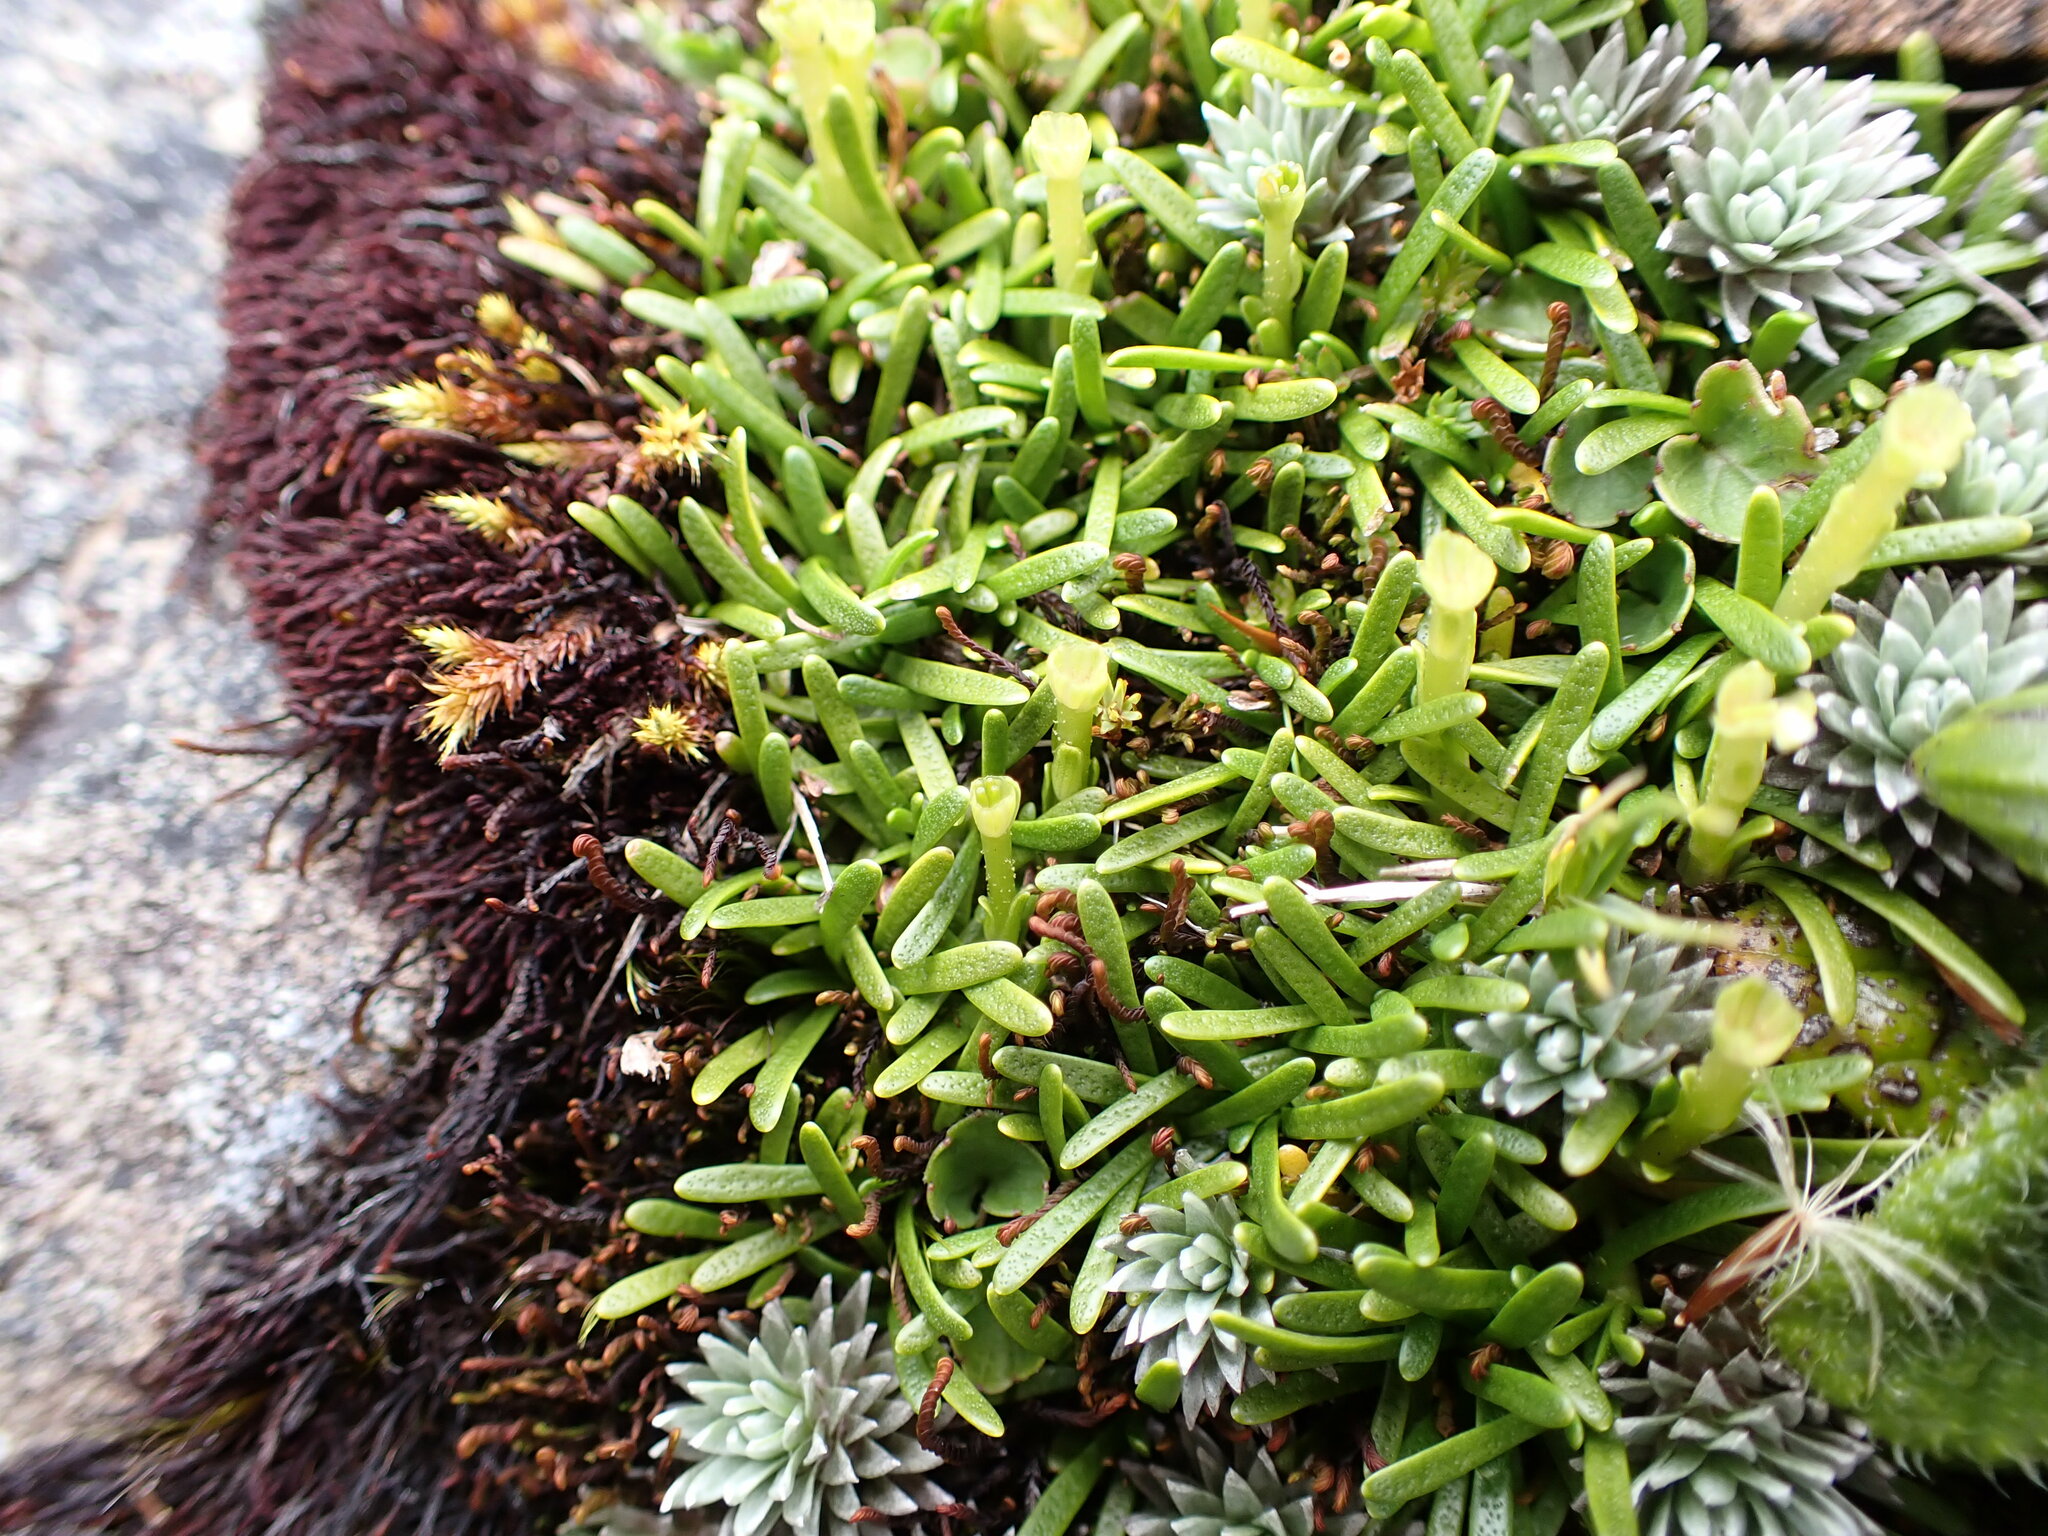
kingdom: Plantae
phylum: Tracheophyta
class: Magnoliopsida
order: Asterales
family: Asteraceae
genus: Abrotanella
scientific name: Abrotanella caespitosa
